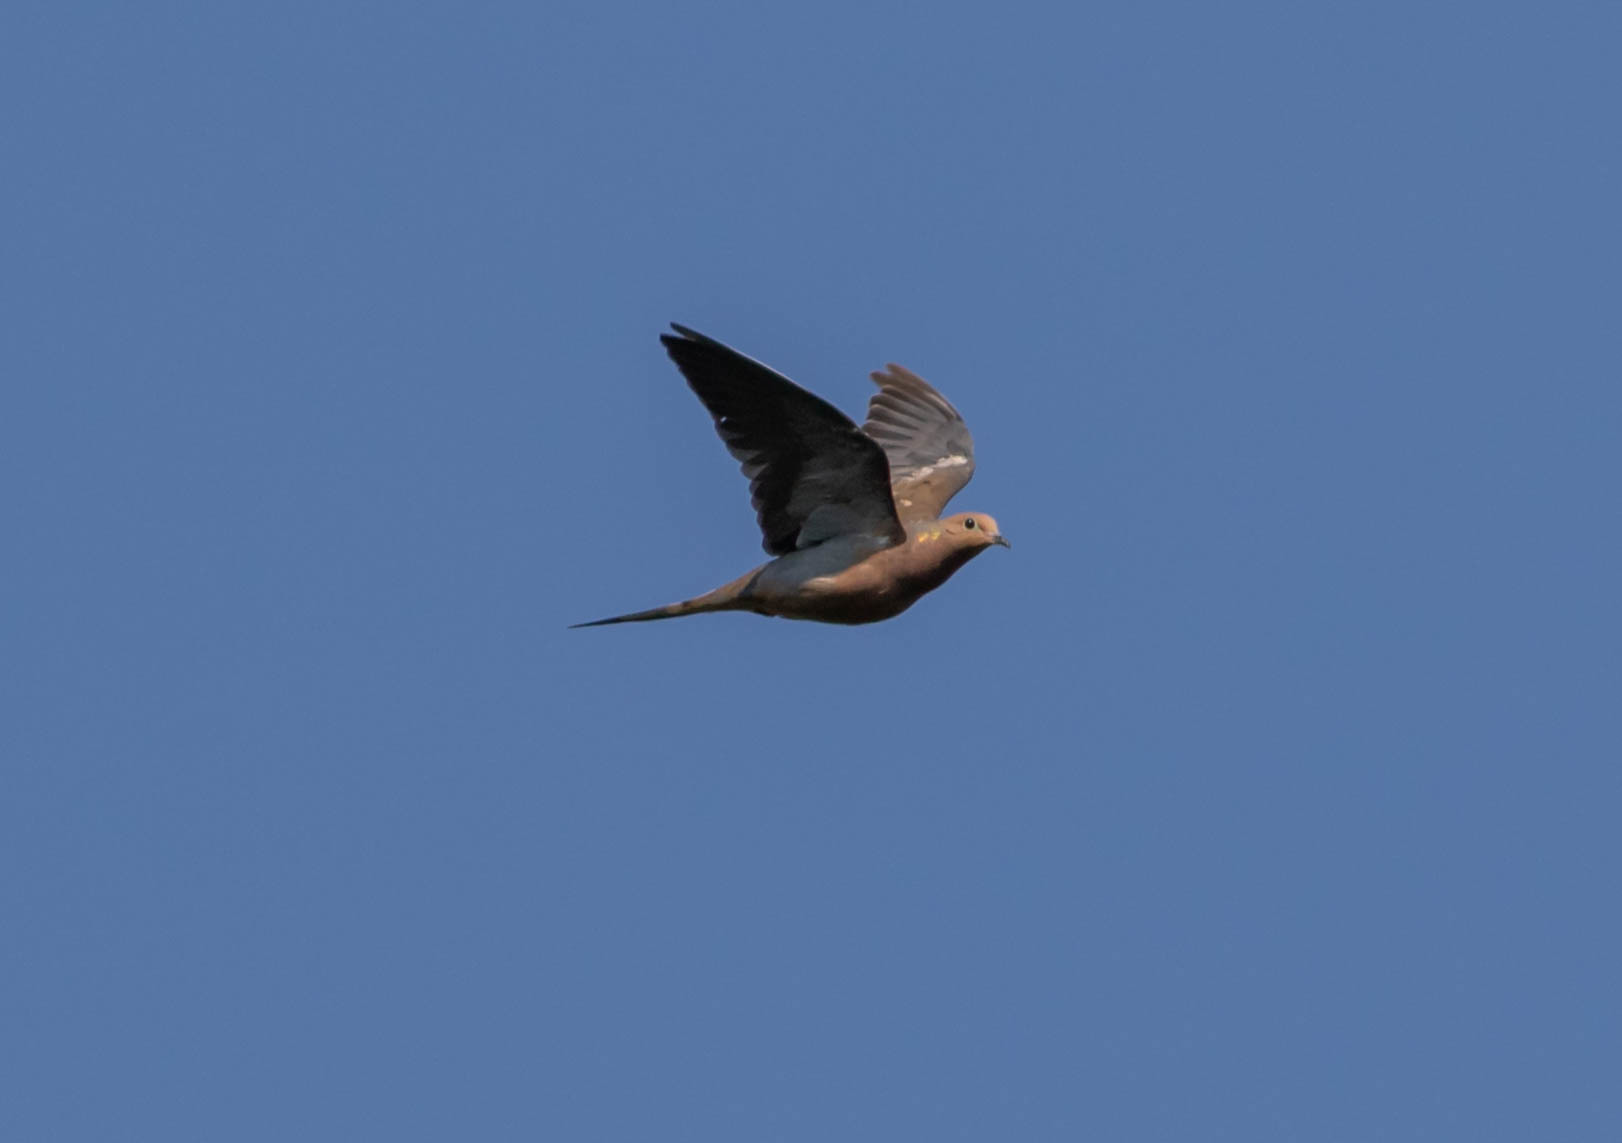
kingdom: Animalia
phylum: Chordata
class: Aves
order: Columbiformes
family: Columbidae
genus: Zenaida
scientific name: Zenaida macroura
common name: Mourning dove
